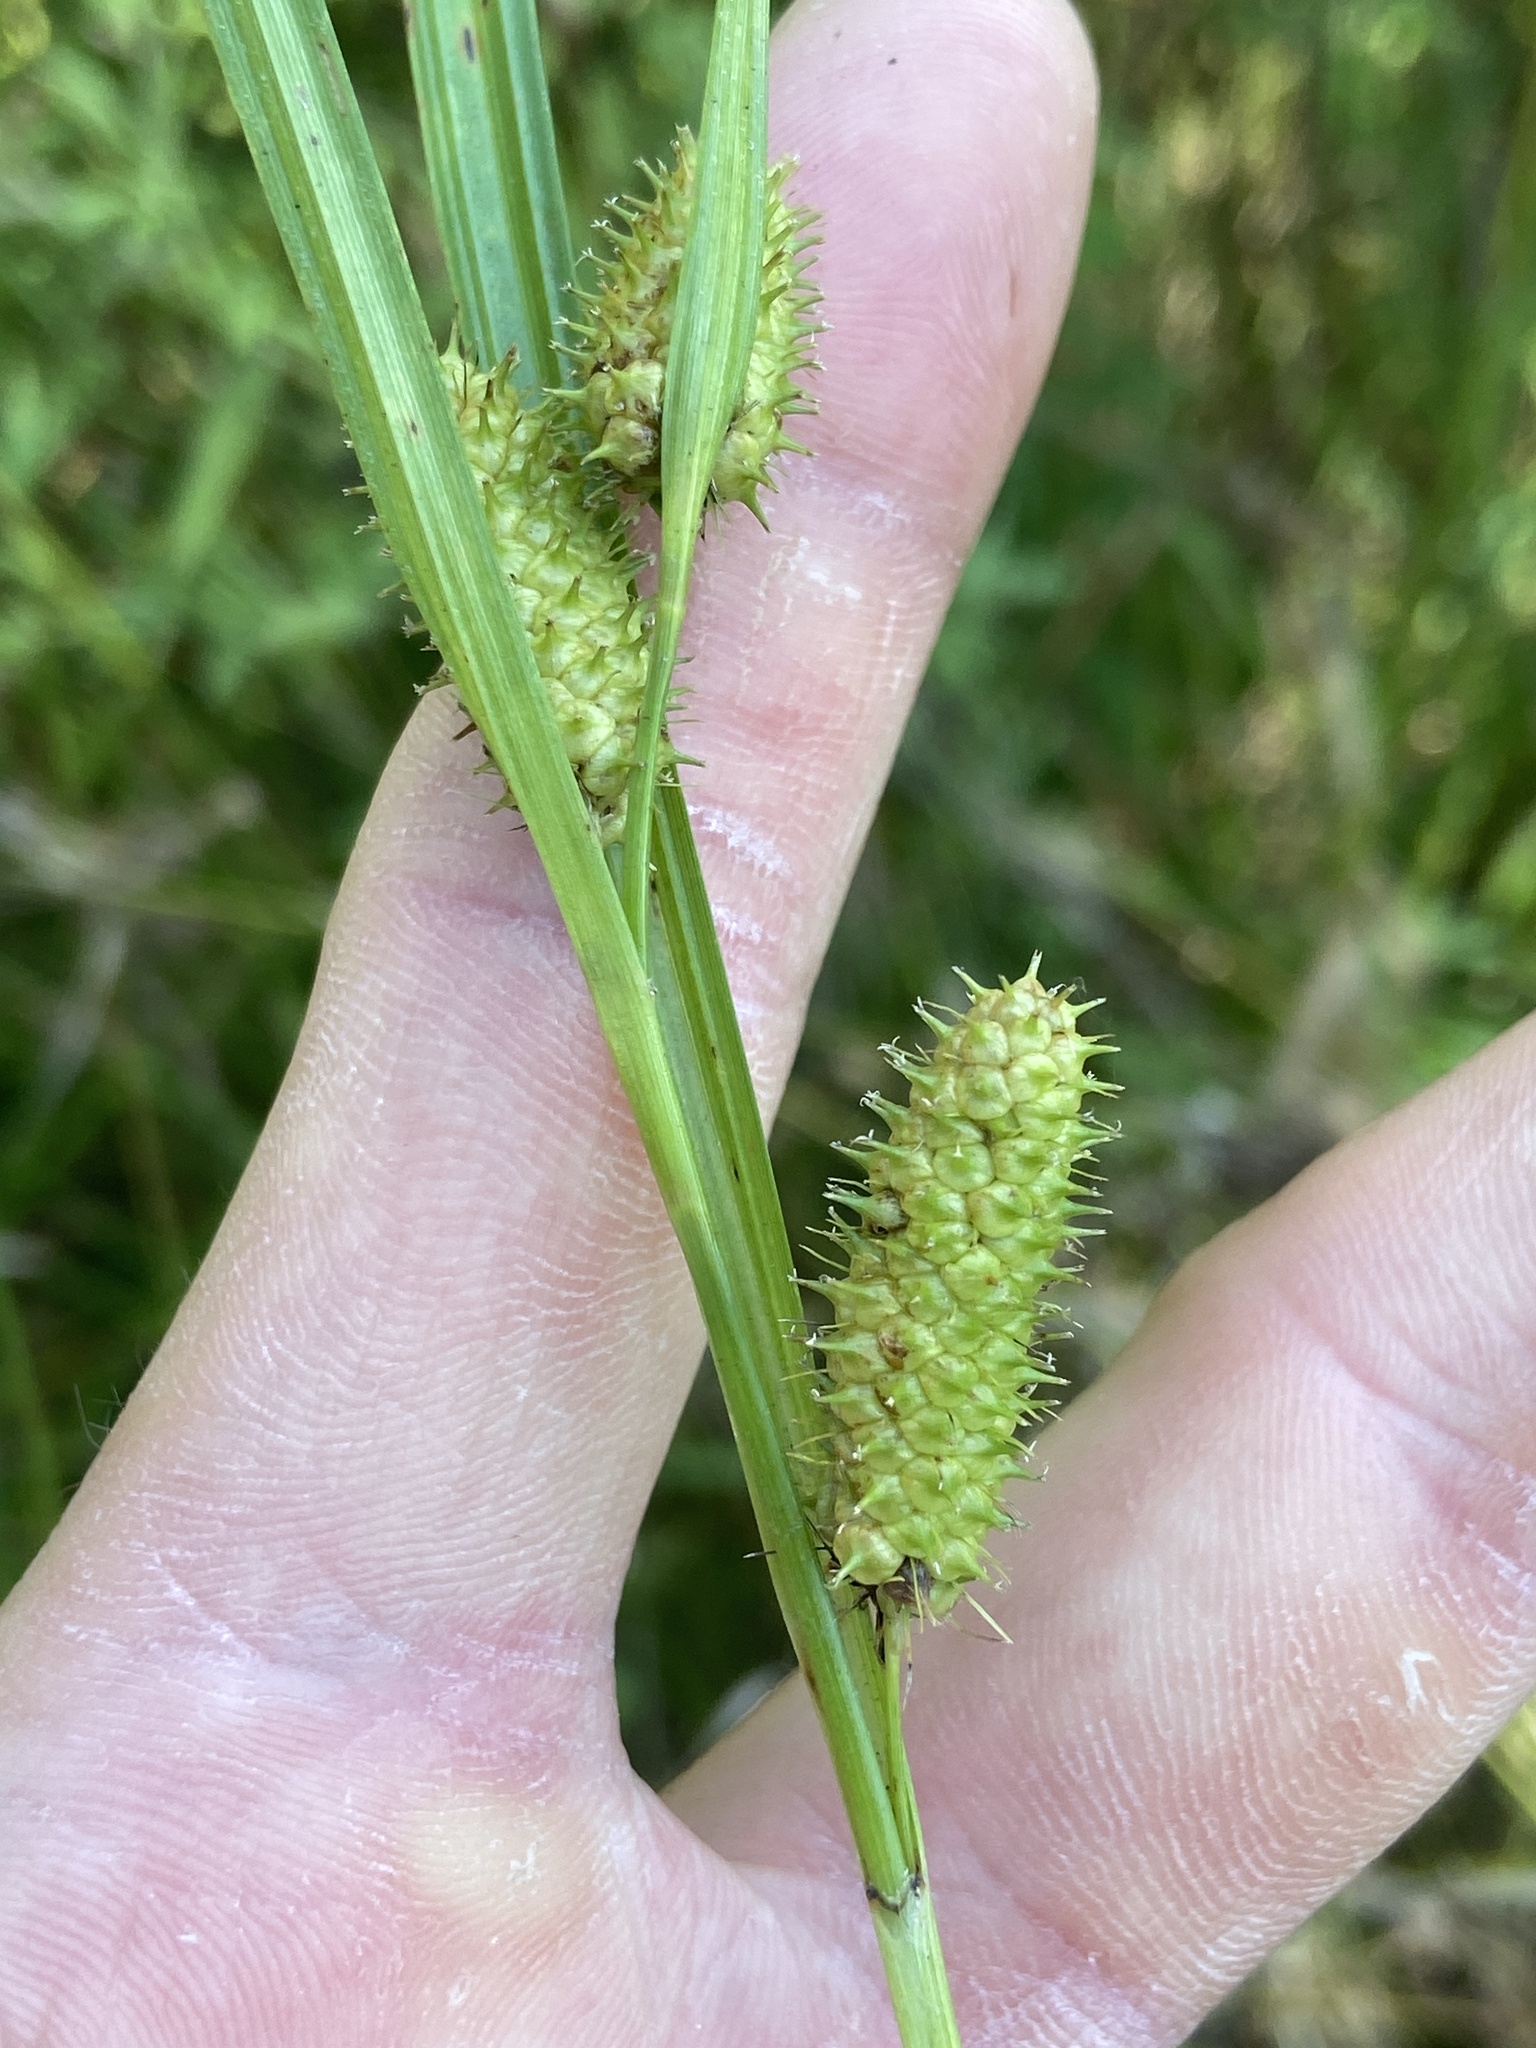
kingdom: Plantae
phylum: Tracheophyta
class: Liliopsida
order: Poales
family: Cyperaceae
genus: Carex
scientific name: Carex aureolensis
